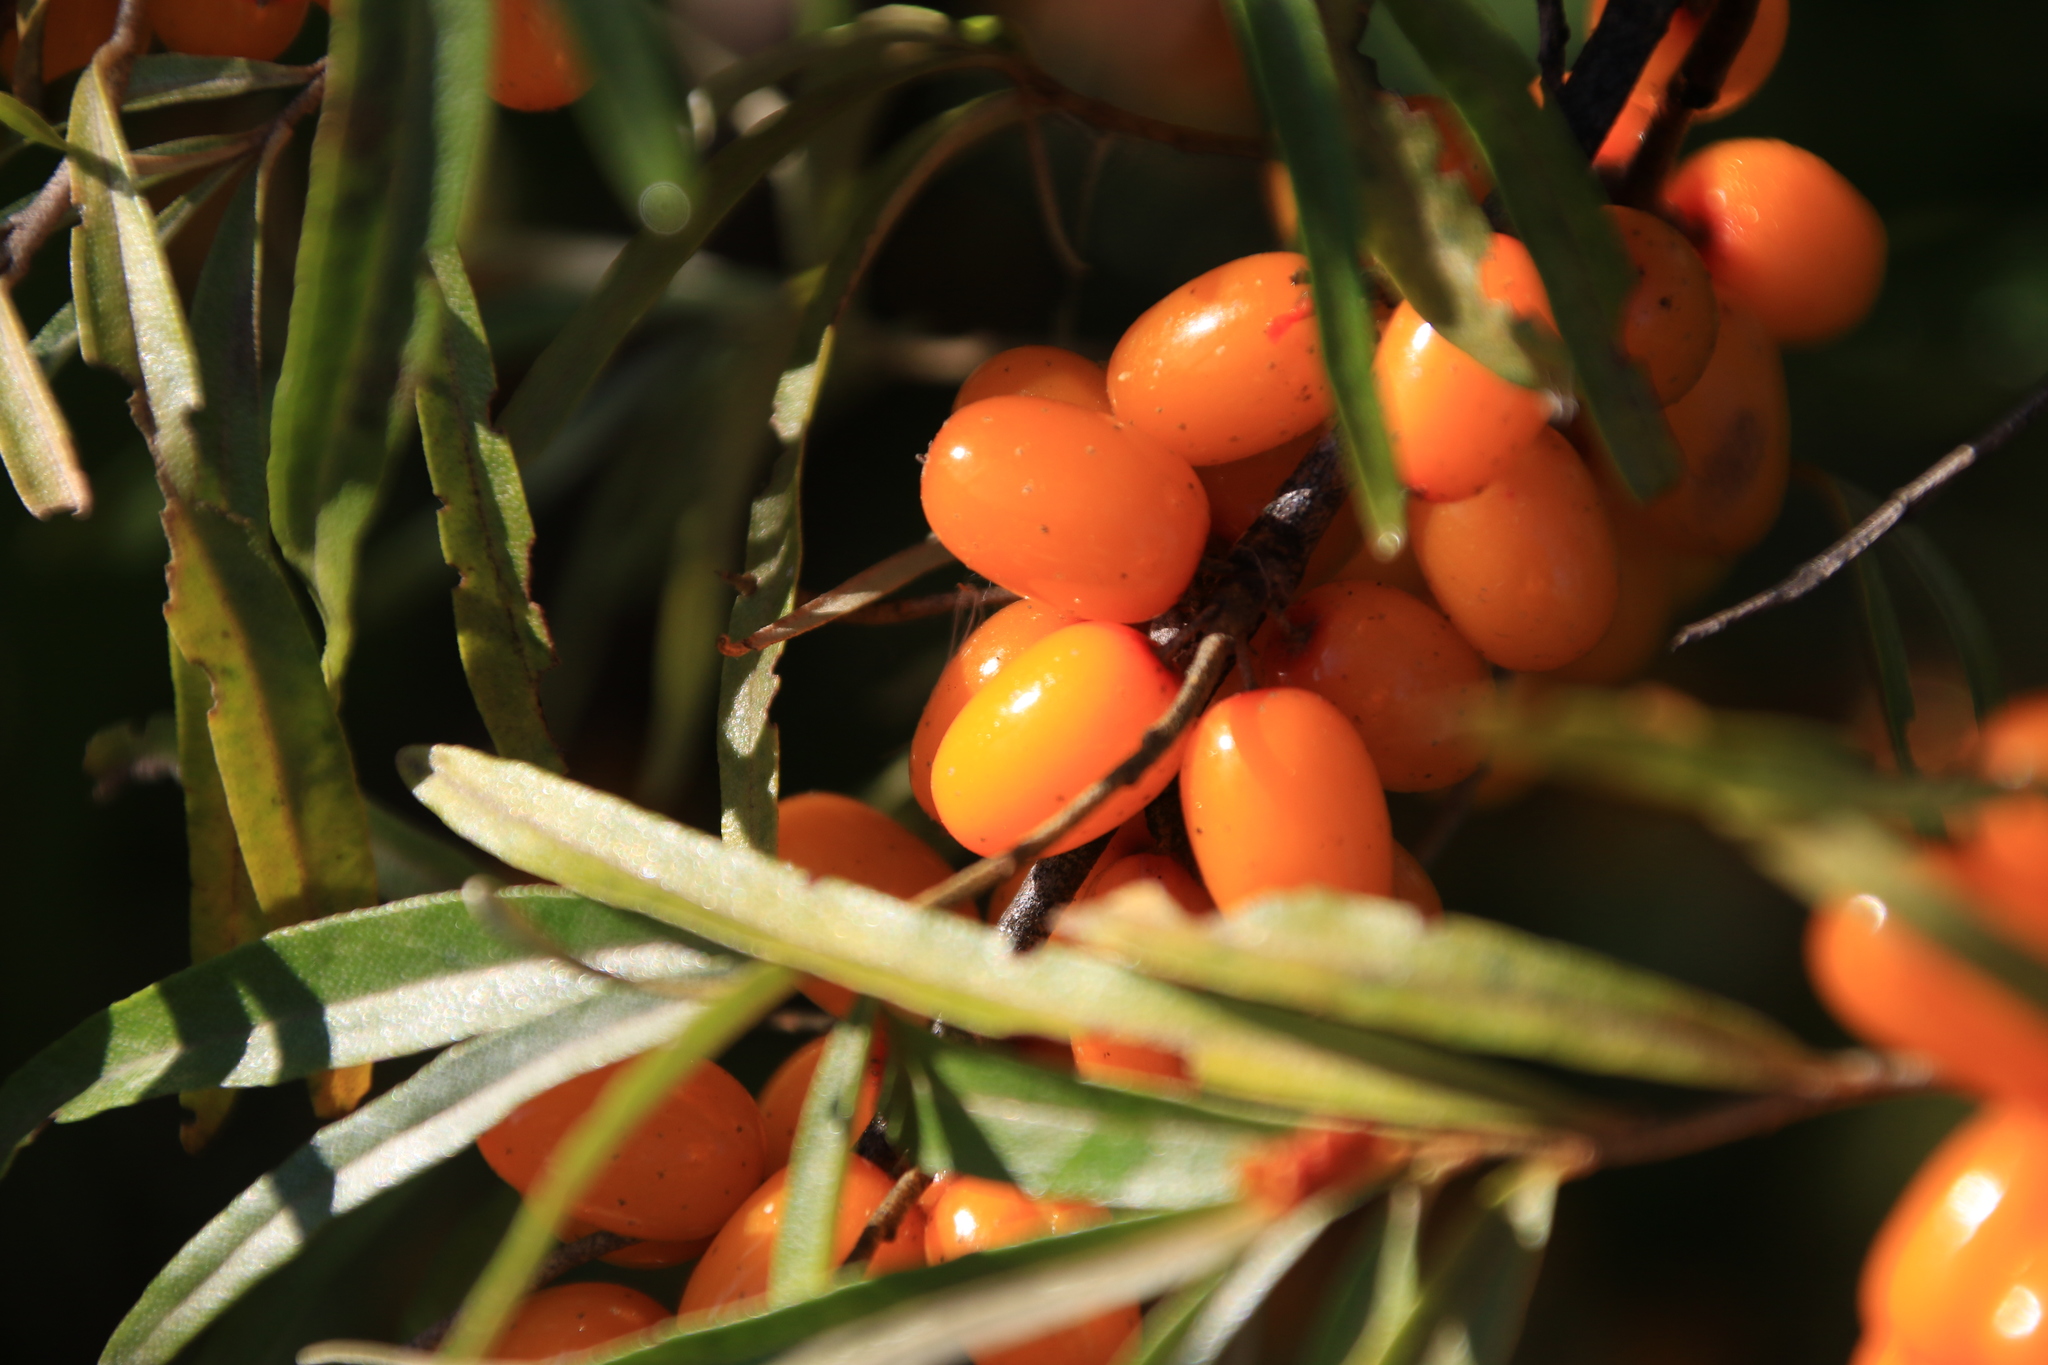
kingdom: Plantae
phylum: Tracheophyta
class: Magnoliopsida
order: Rosales
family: Elaeagnaceae
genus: Hippophae
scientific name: Hippophae rhamnoides
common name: Sea-buckthorn
